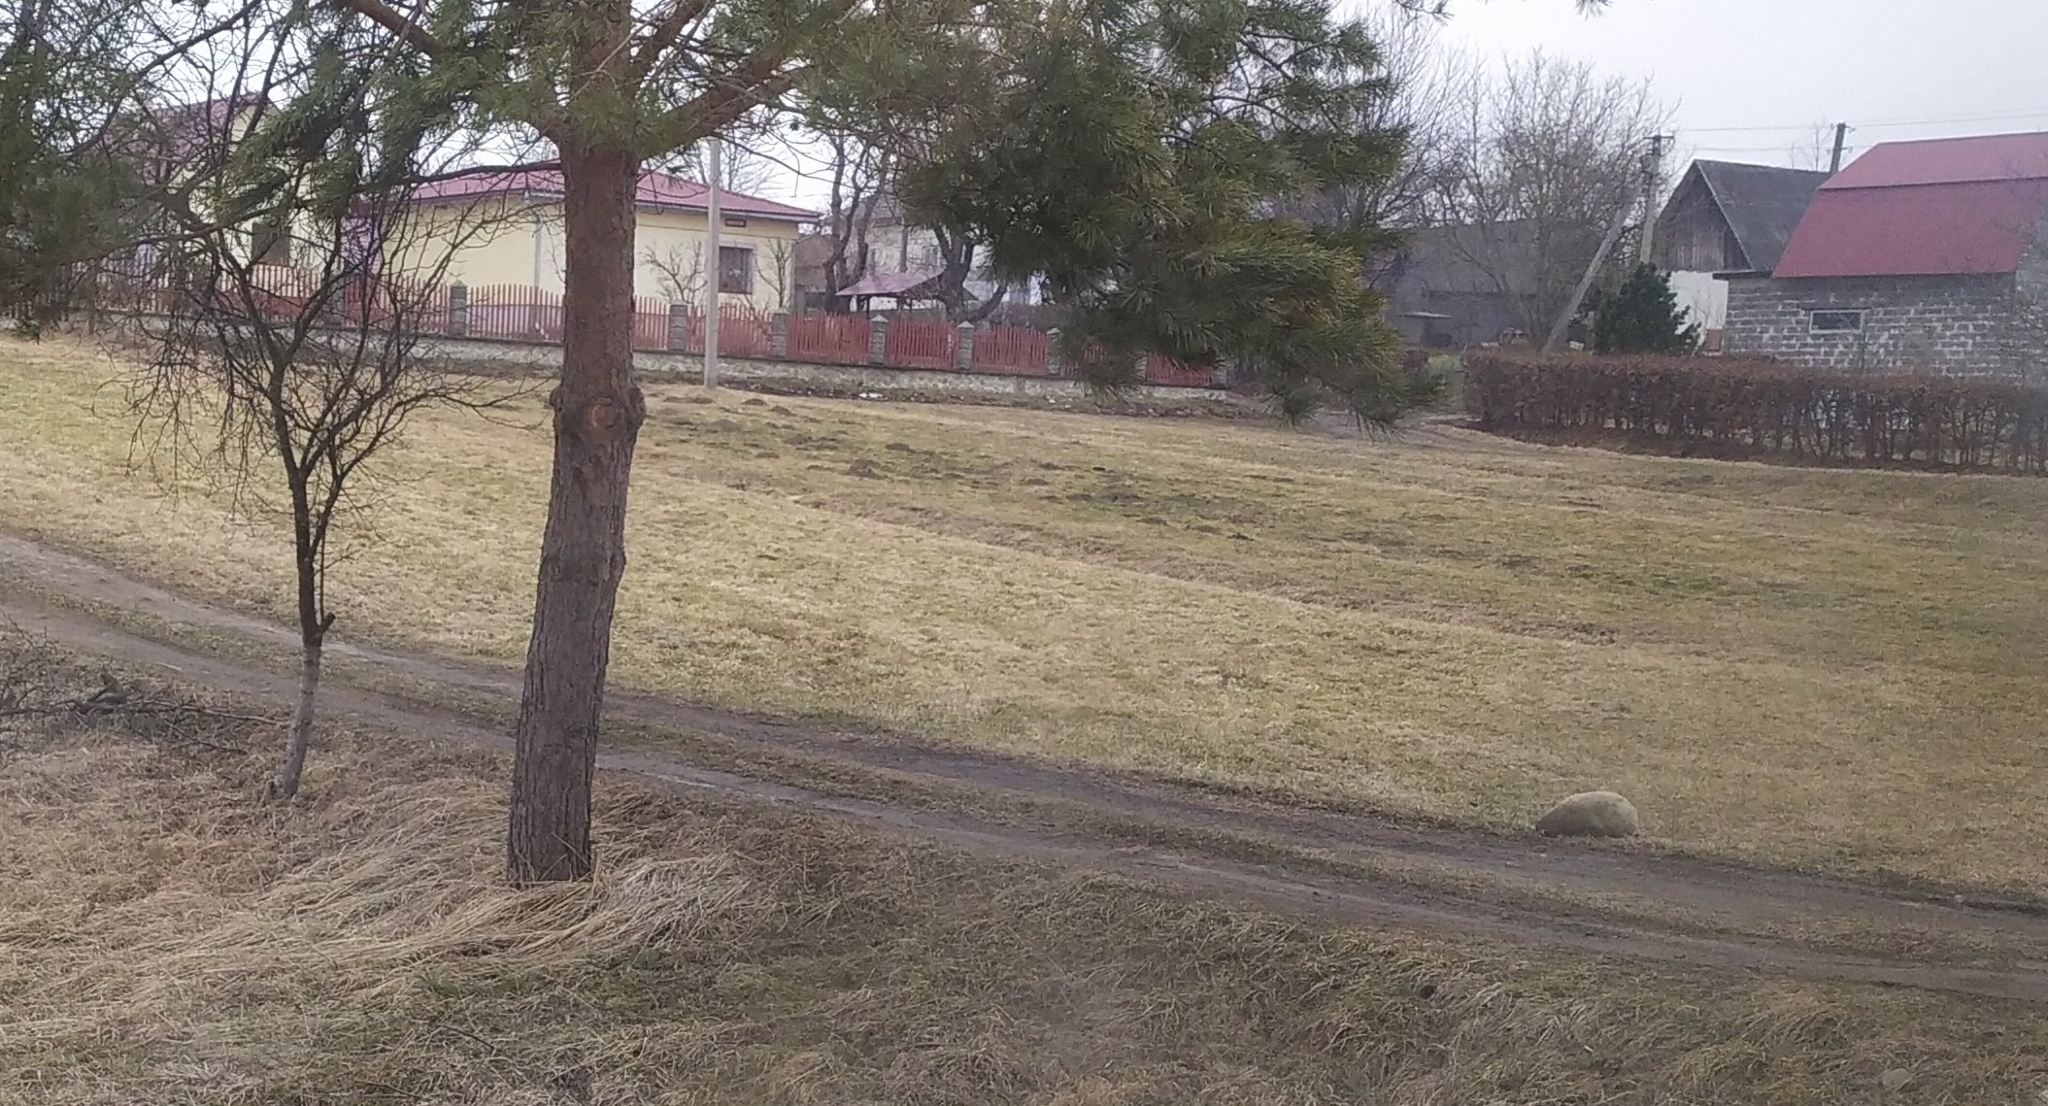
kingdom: Animalia
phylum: Chordata
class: Mammalia
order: Soricomorpha
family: Talpidae
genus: Talpa
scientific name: Talpa europaea
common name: European mole
